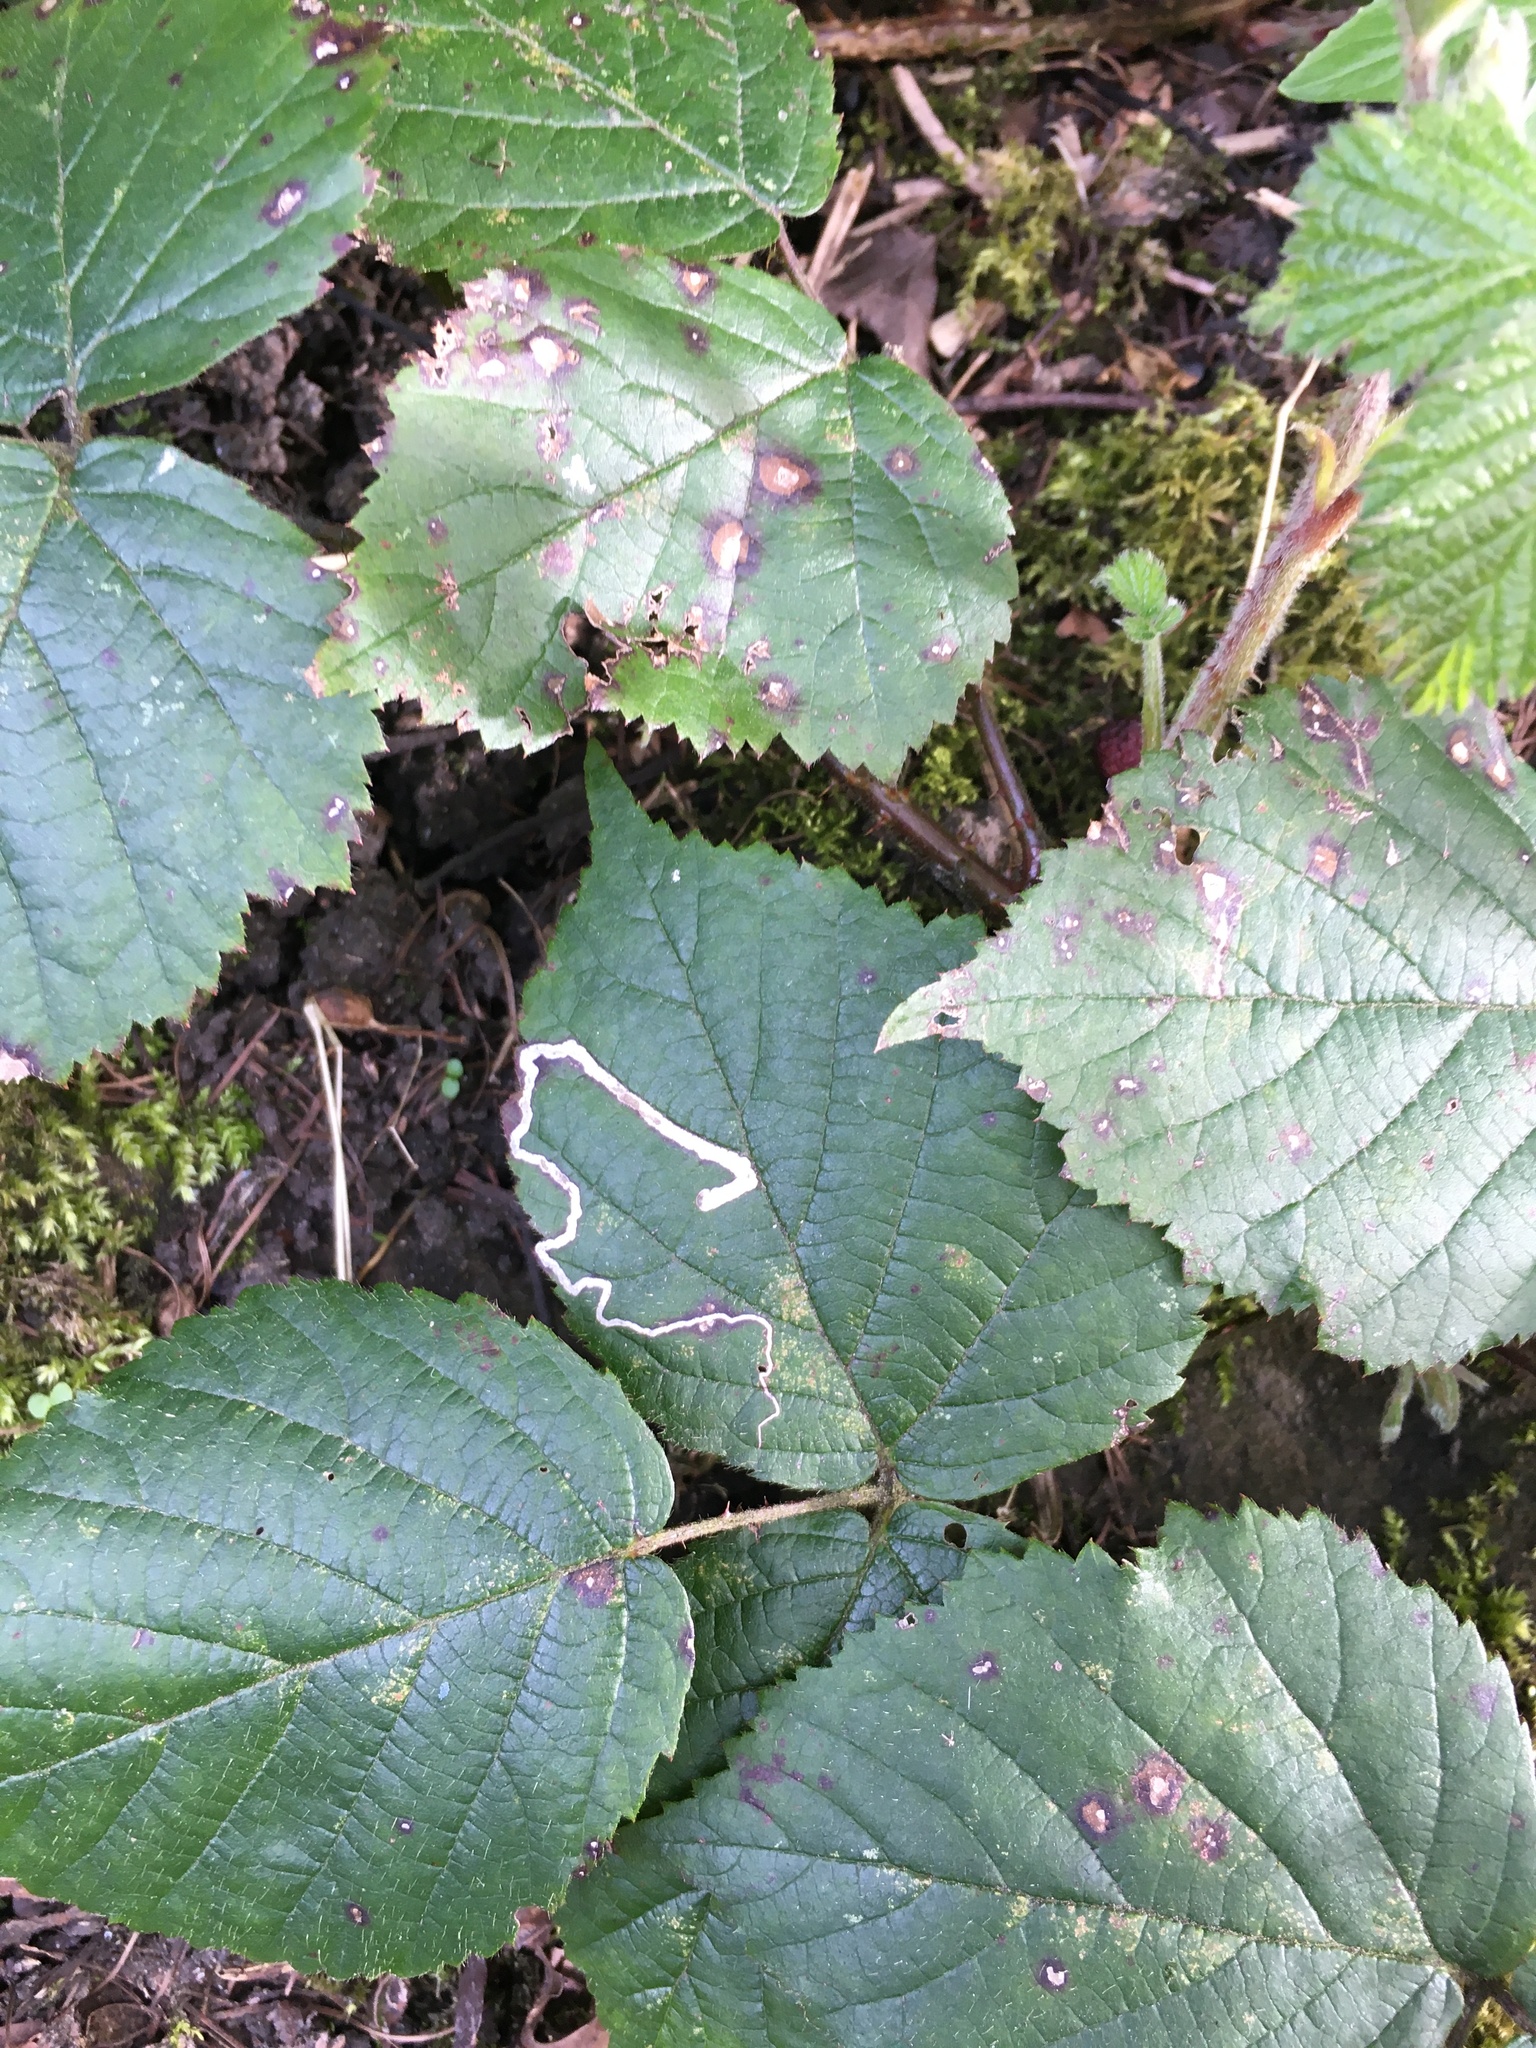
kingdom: Animalia
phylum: Arthropoda
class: Insecta
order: Lepidoptera
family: Nepticulidae
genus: Stigmella
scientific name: Stigmella aurella
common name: Golden pigmy
